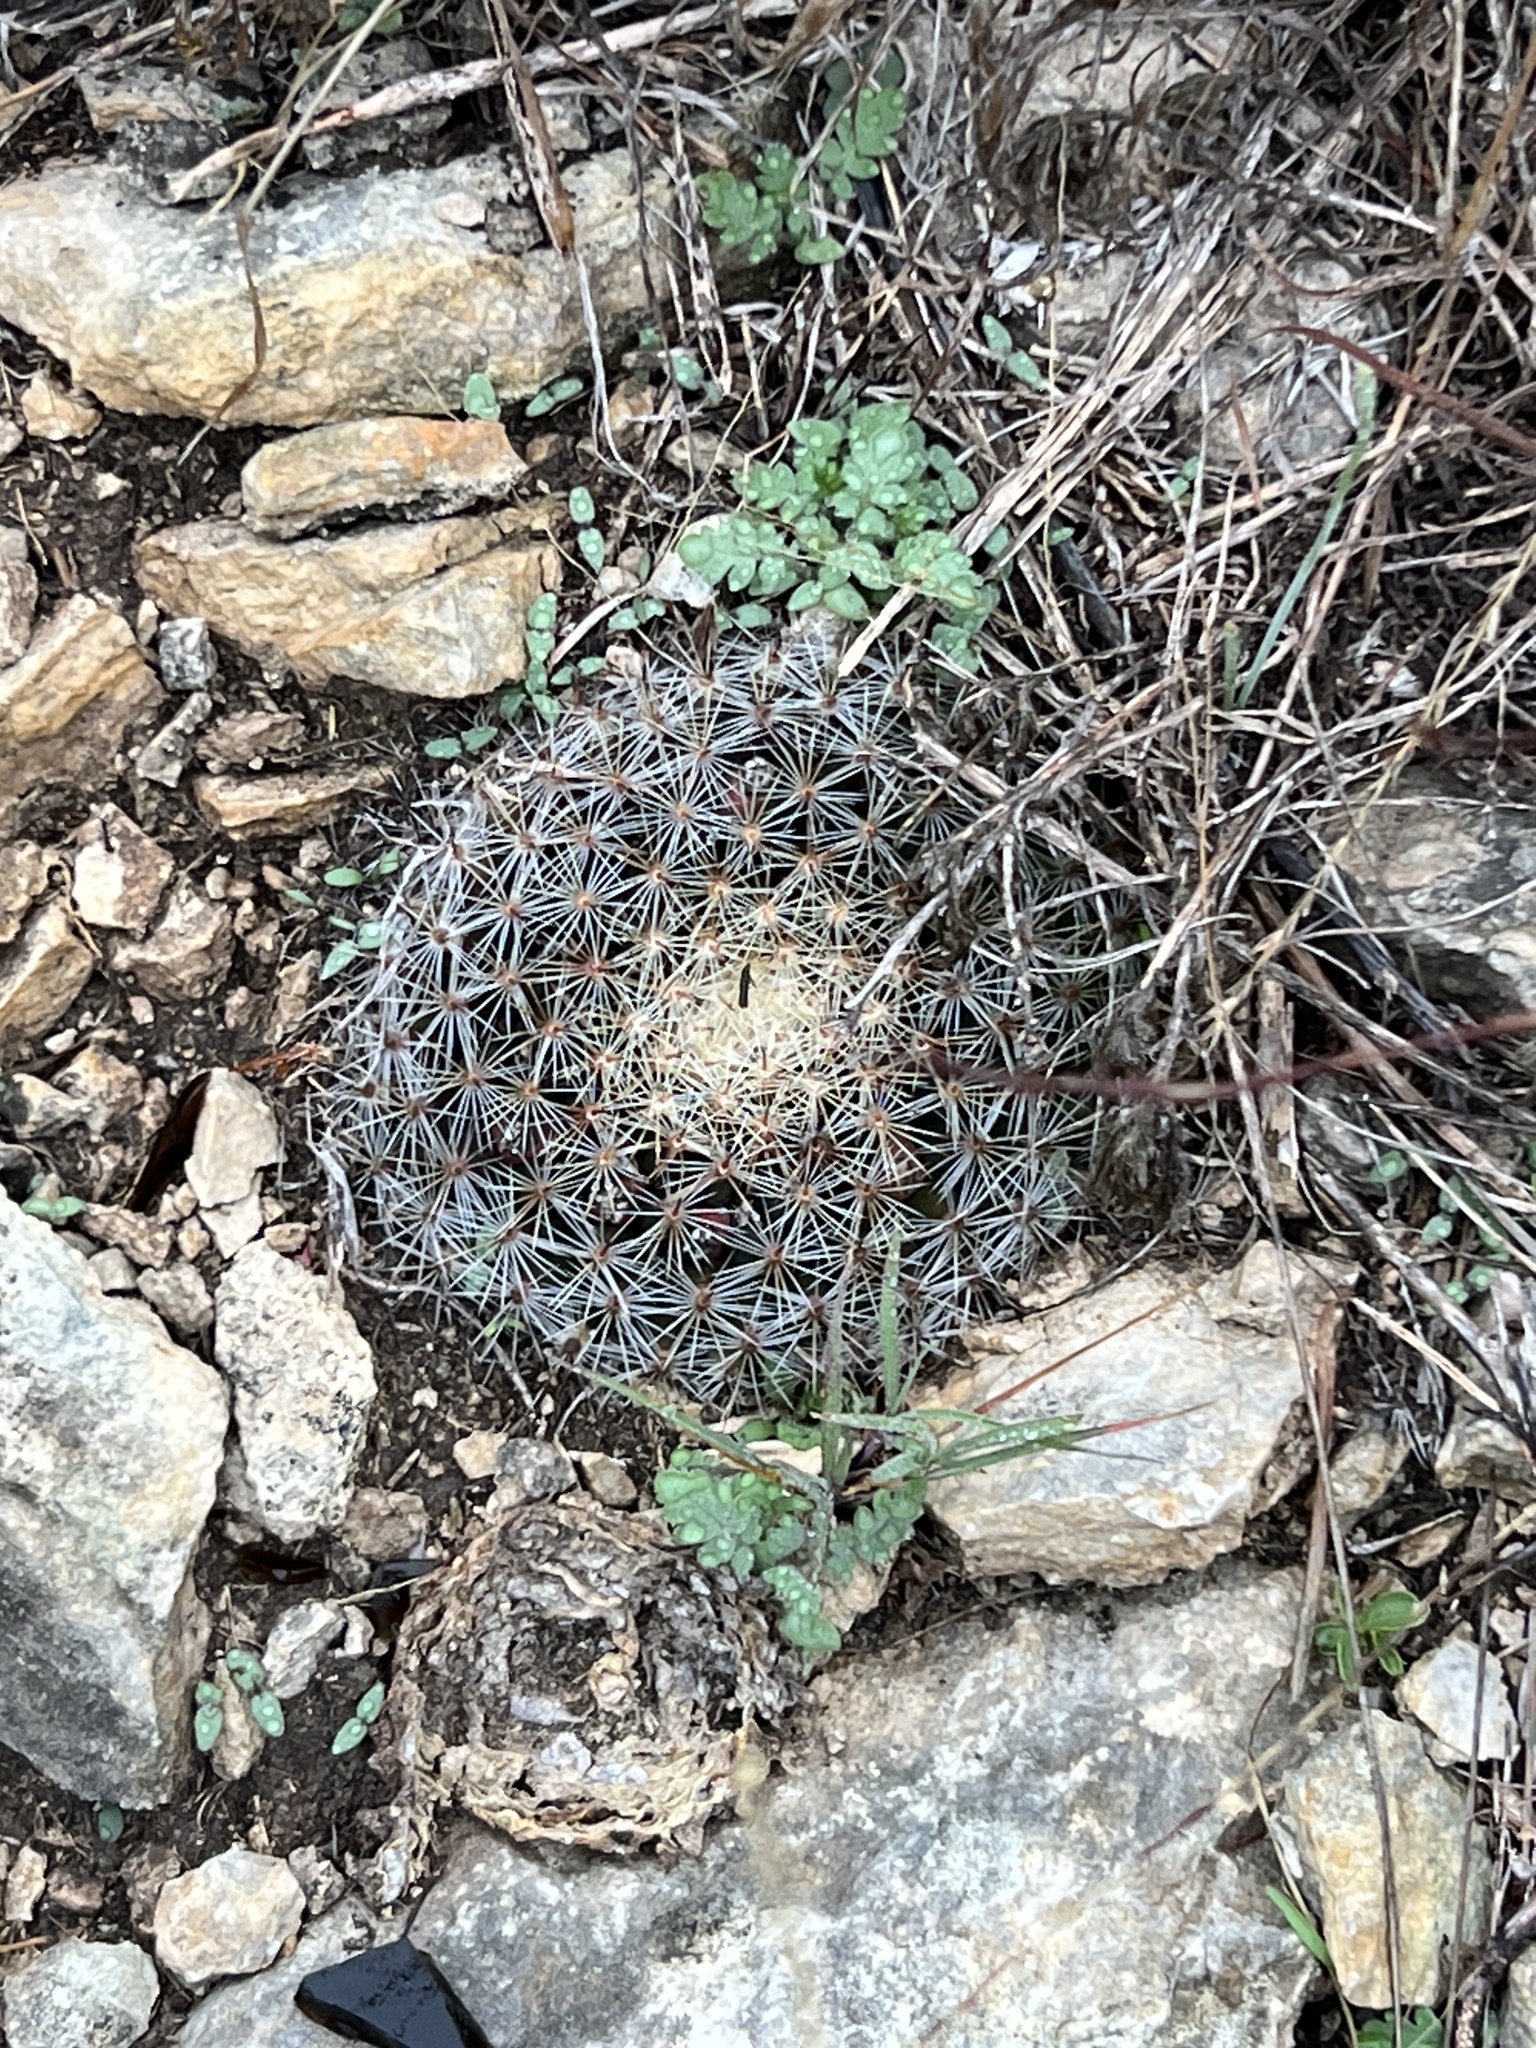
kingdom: Plantae
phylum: Tracheophyta
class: Magnoliopsida
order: Caryophyllales
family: Cactaceae
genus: Mammillaria
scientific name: Mammillaria heyderi
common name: Little nipple cactus
